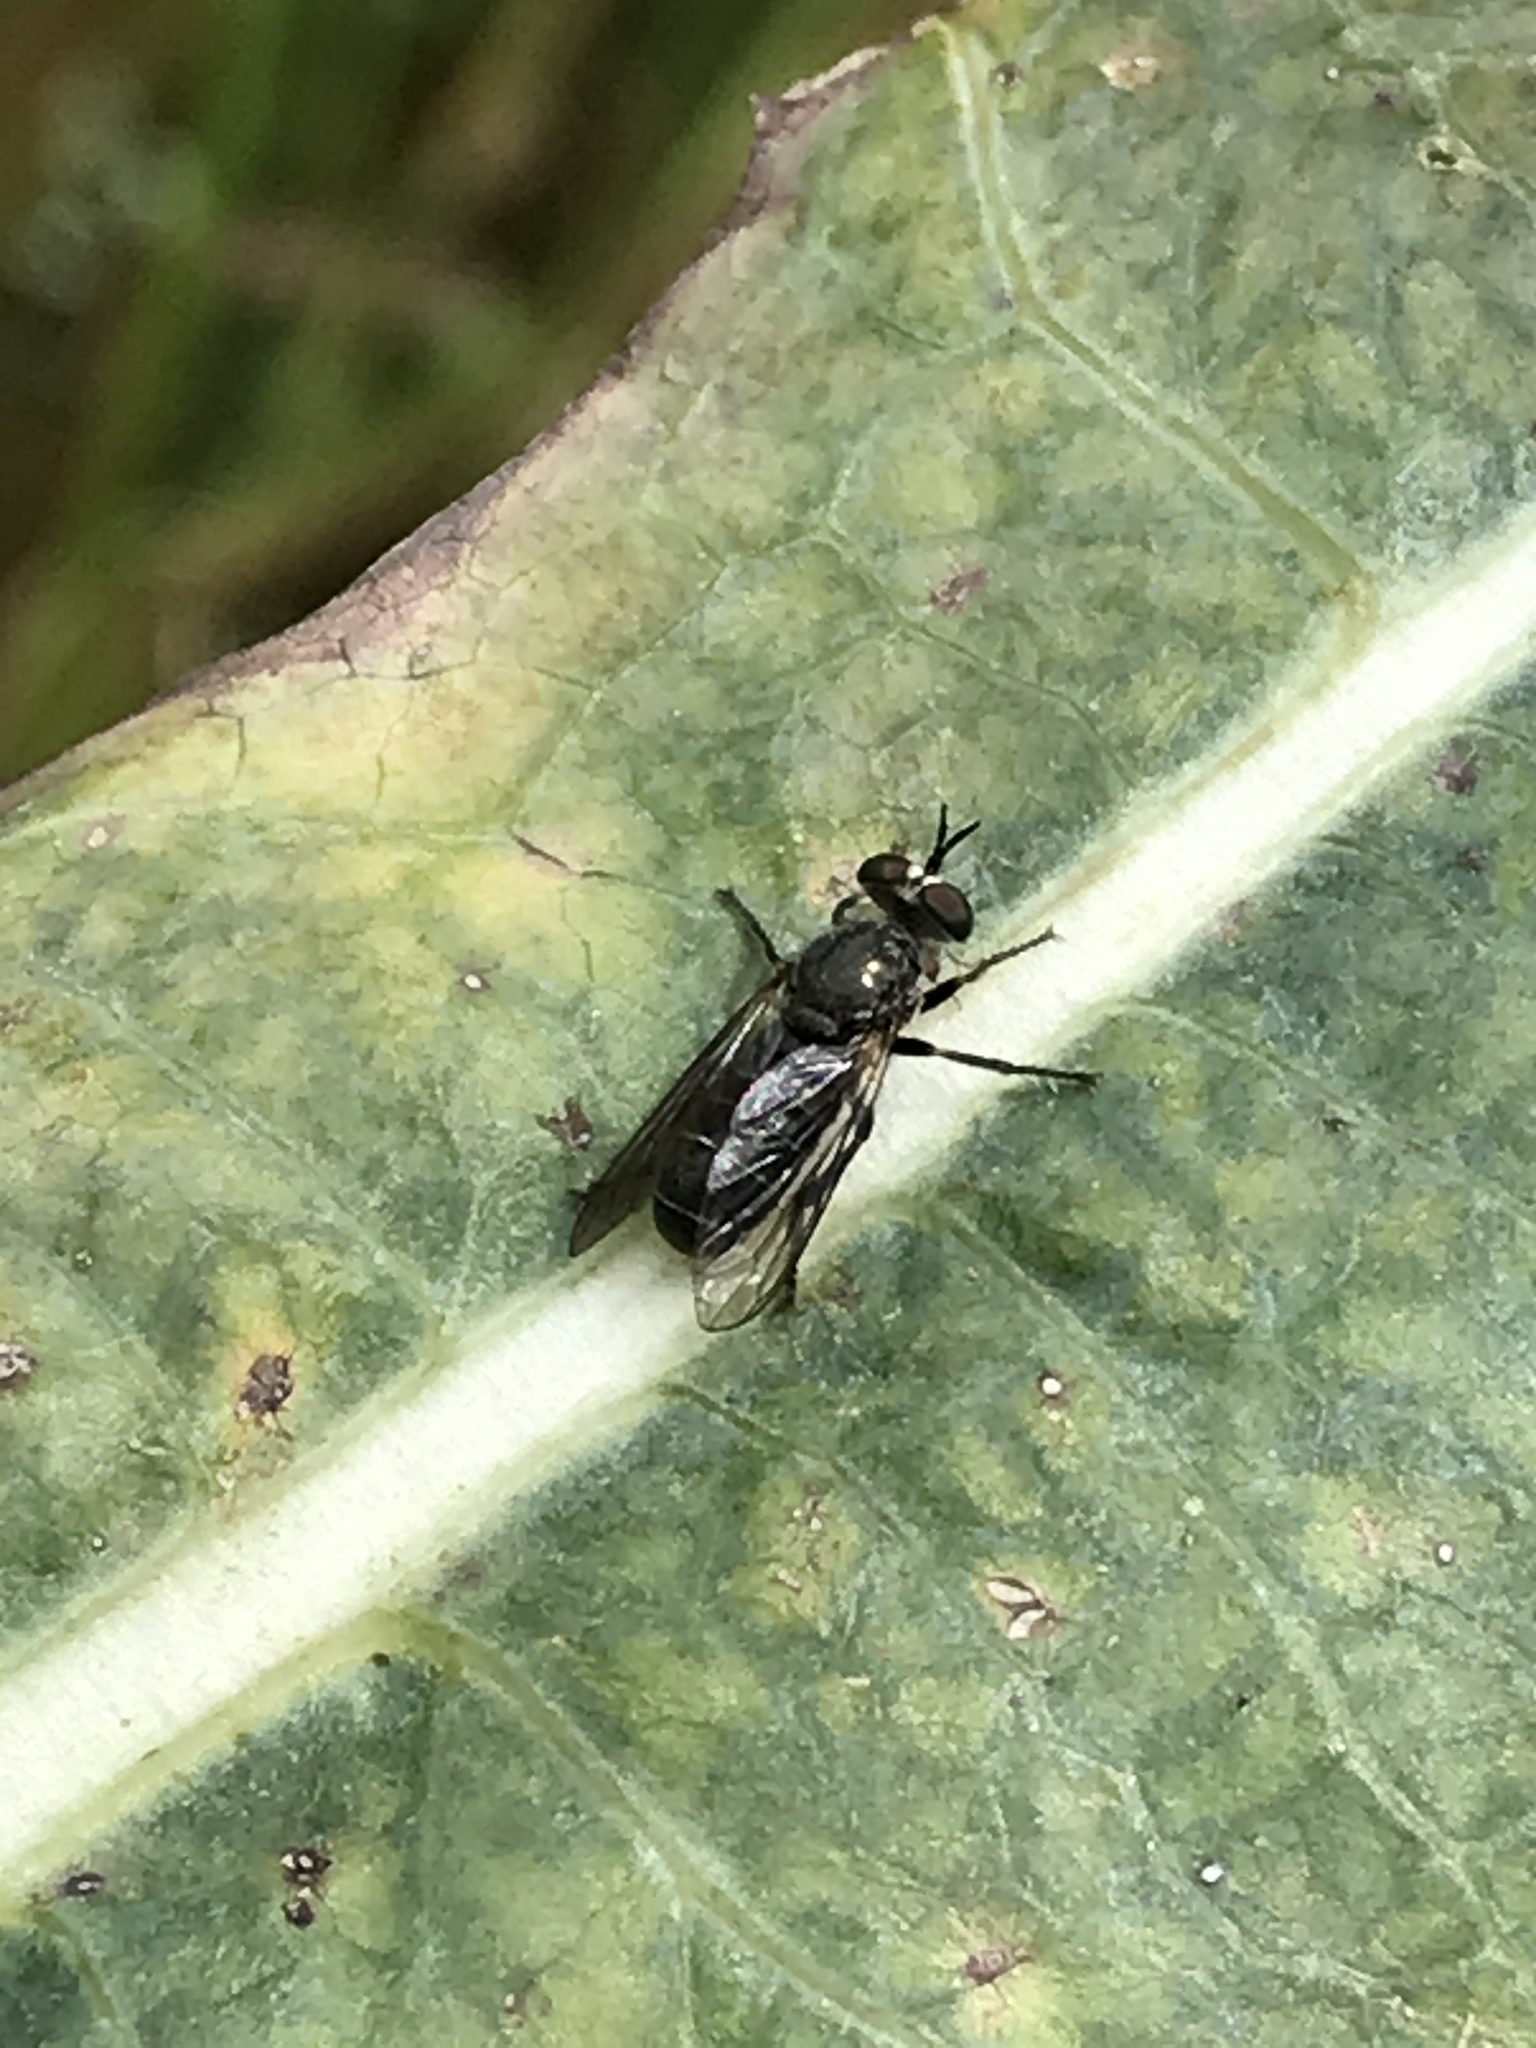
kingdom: Animalia
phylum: Arthropoda
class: Insecta
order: Diptera
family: Asilidae
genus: Atomosia
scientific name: Atomosia
